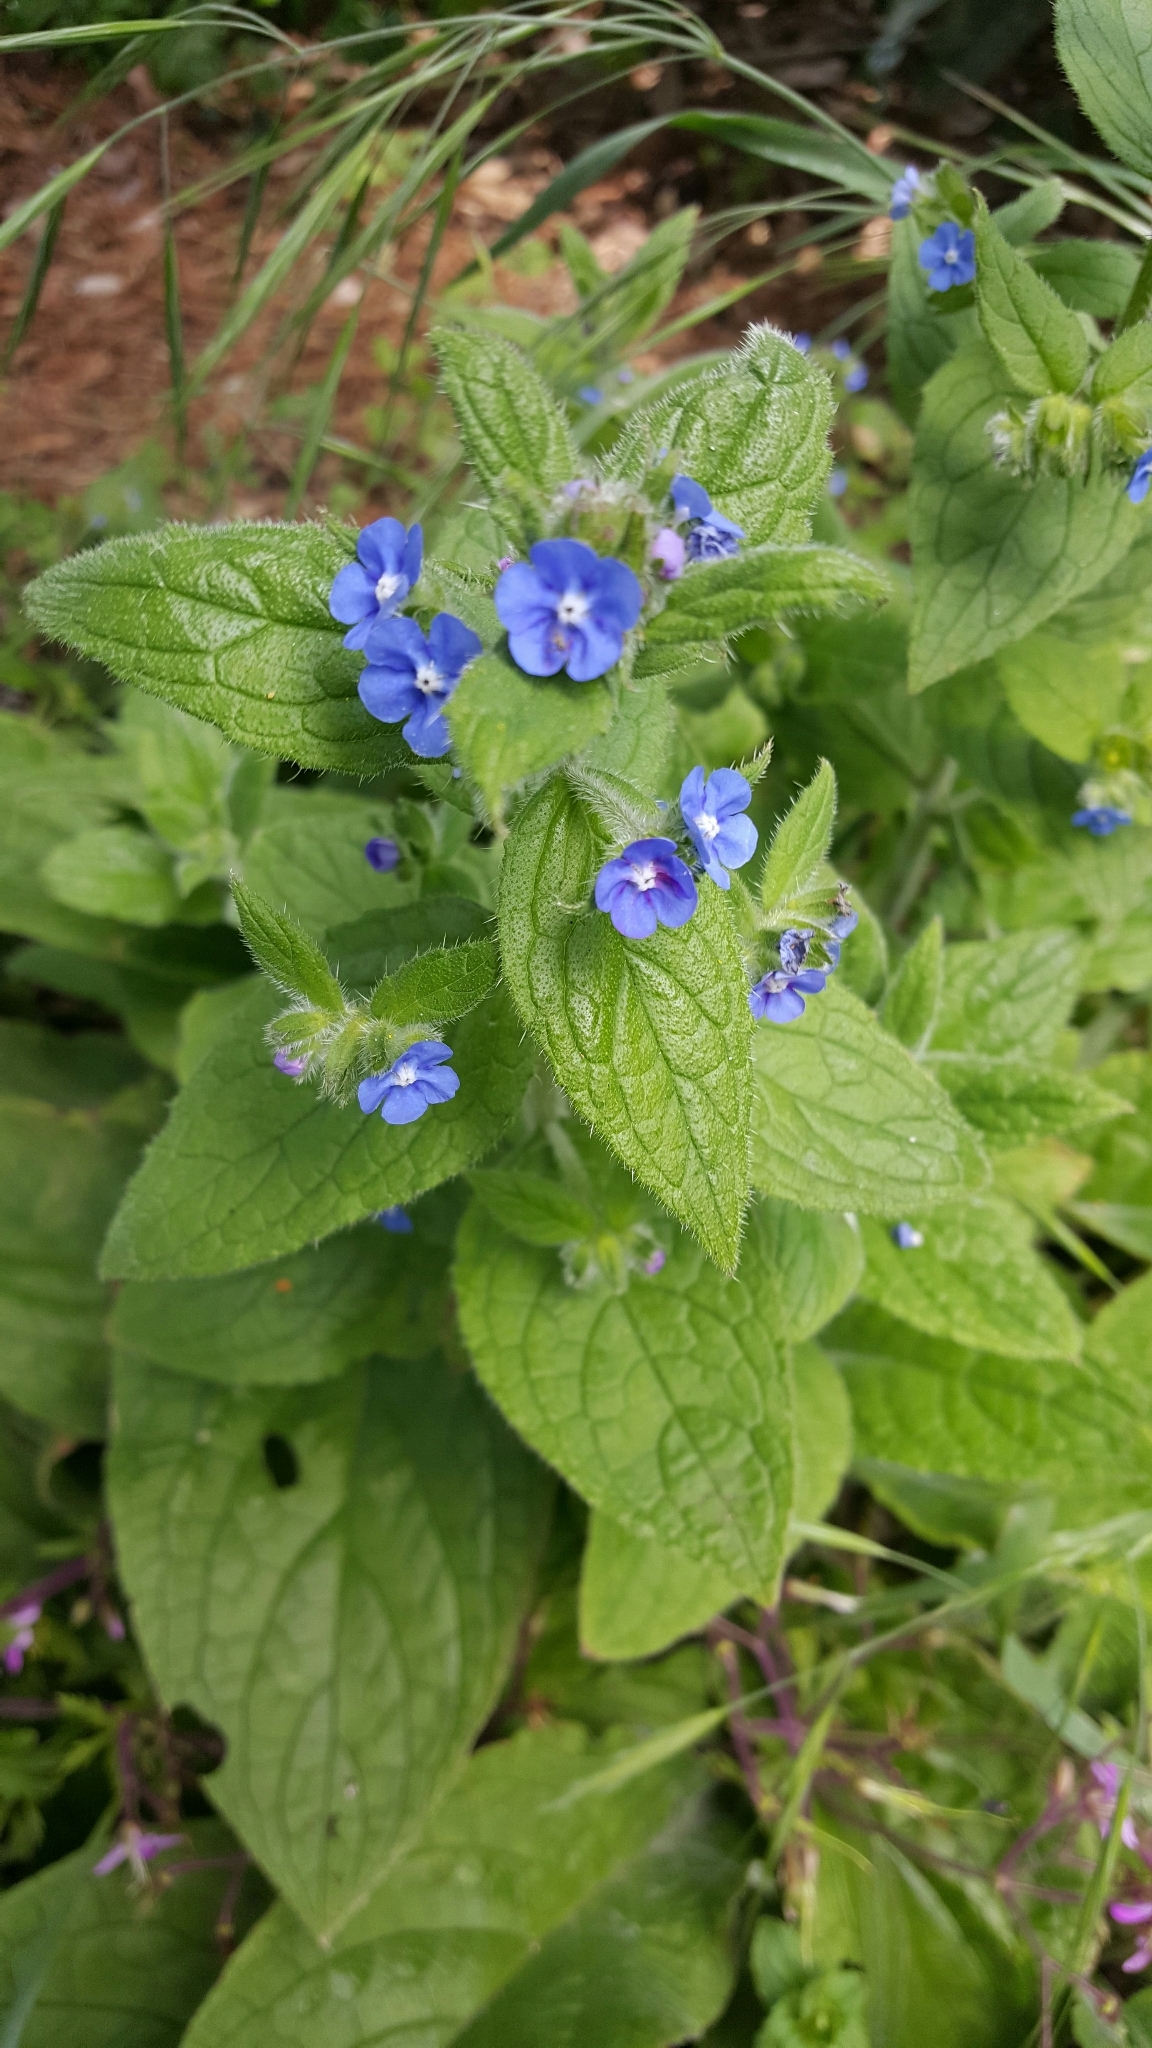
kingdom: Plantae
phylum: Tracheophyta
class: Magnoliopsida
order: Boraginales
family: Boraginaceae
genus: Pentaglottis
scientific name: Pentaglottis sempervirens
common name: Green alkanet
